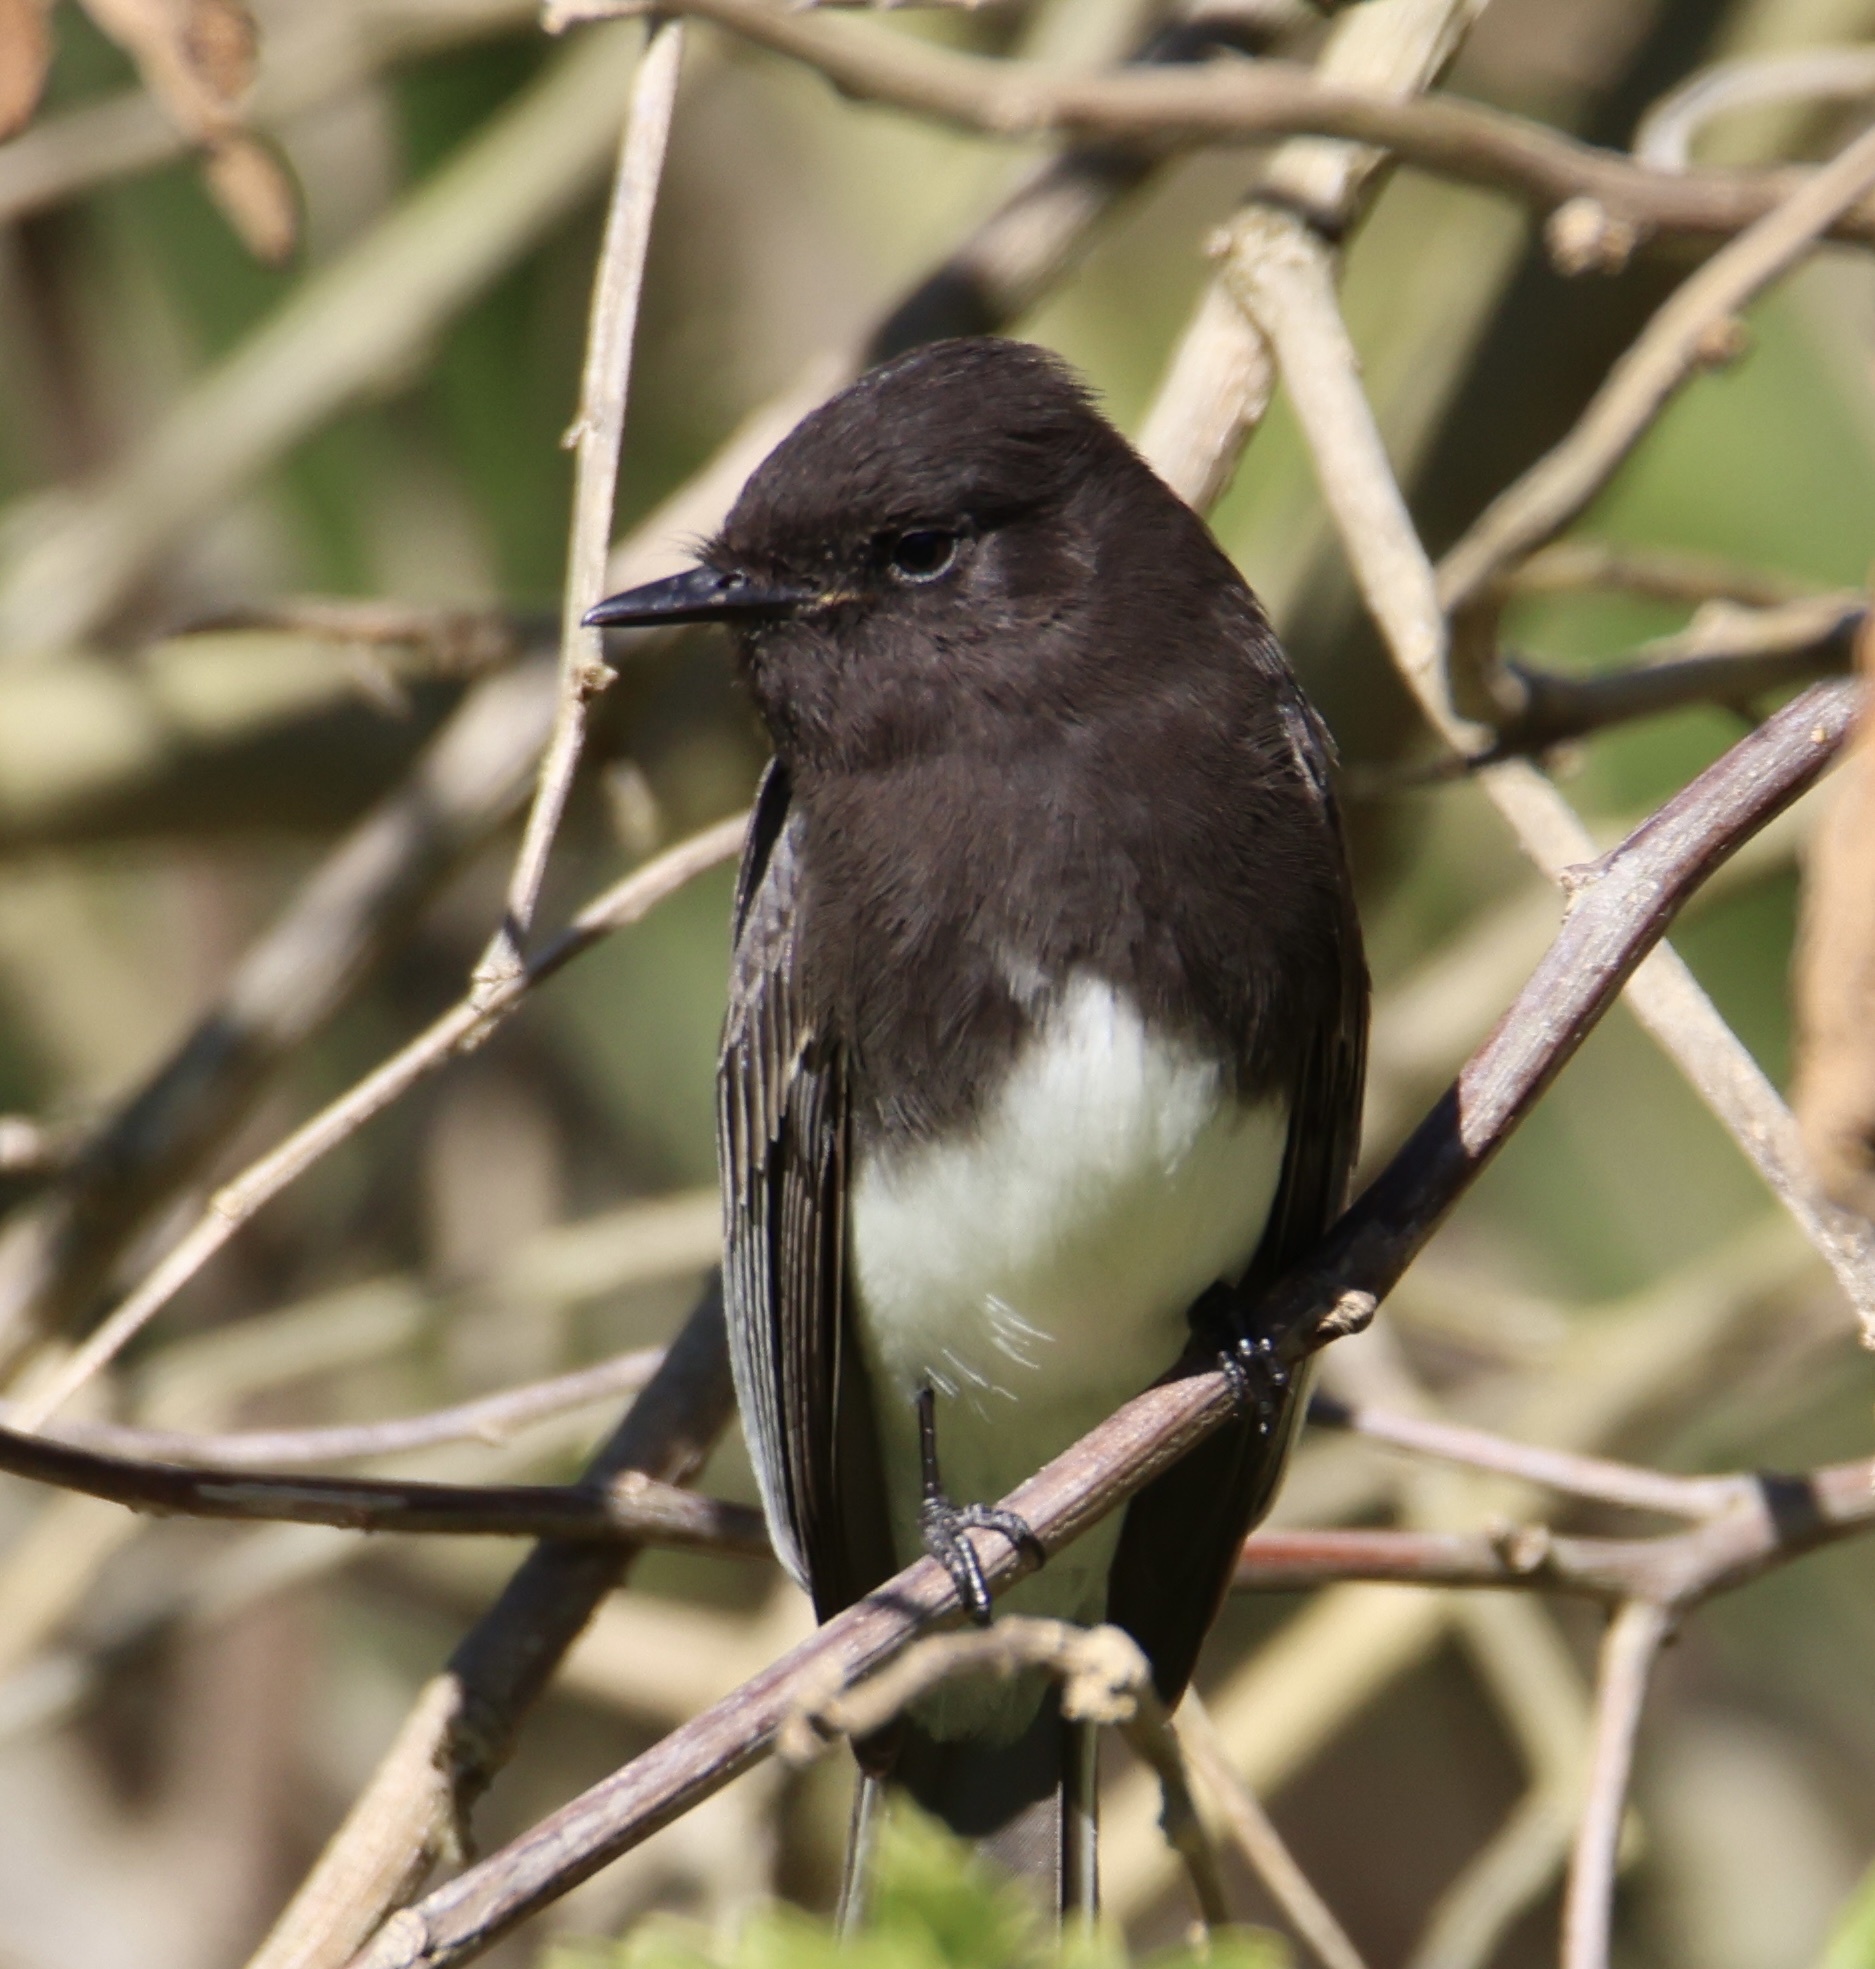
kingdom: Animalia
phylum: Chordata
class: Aves
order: Passeriformes
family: Tyrannidae
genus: Sayornis
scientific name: Sayornis nigricans
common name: Black phoebe
